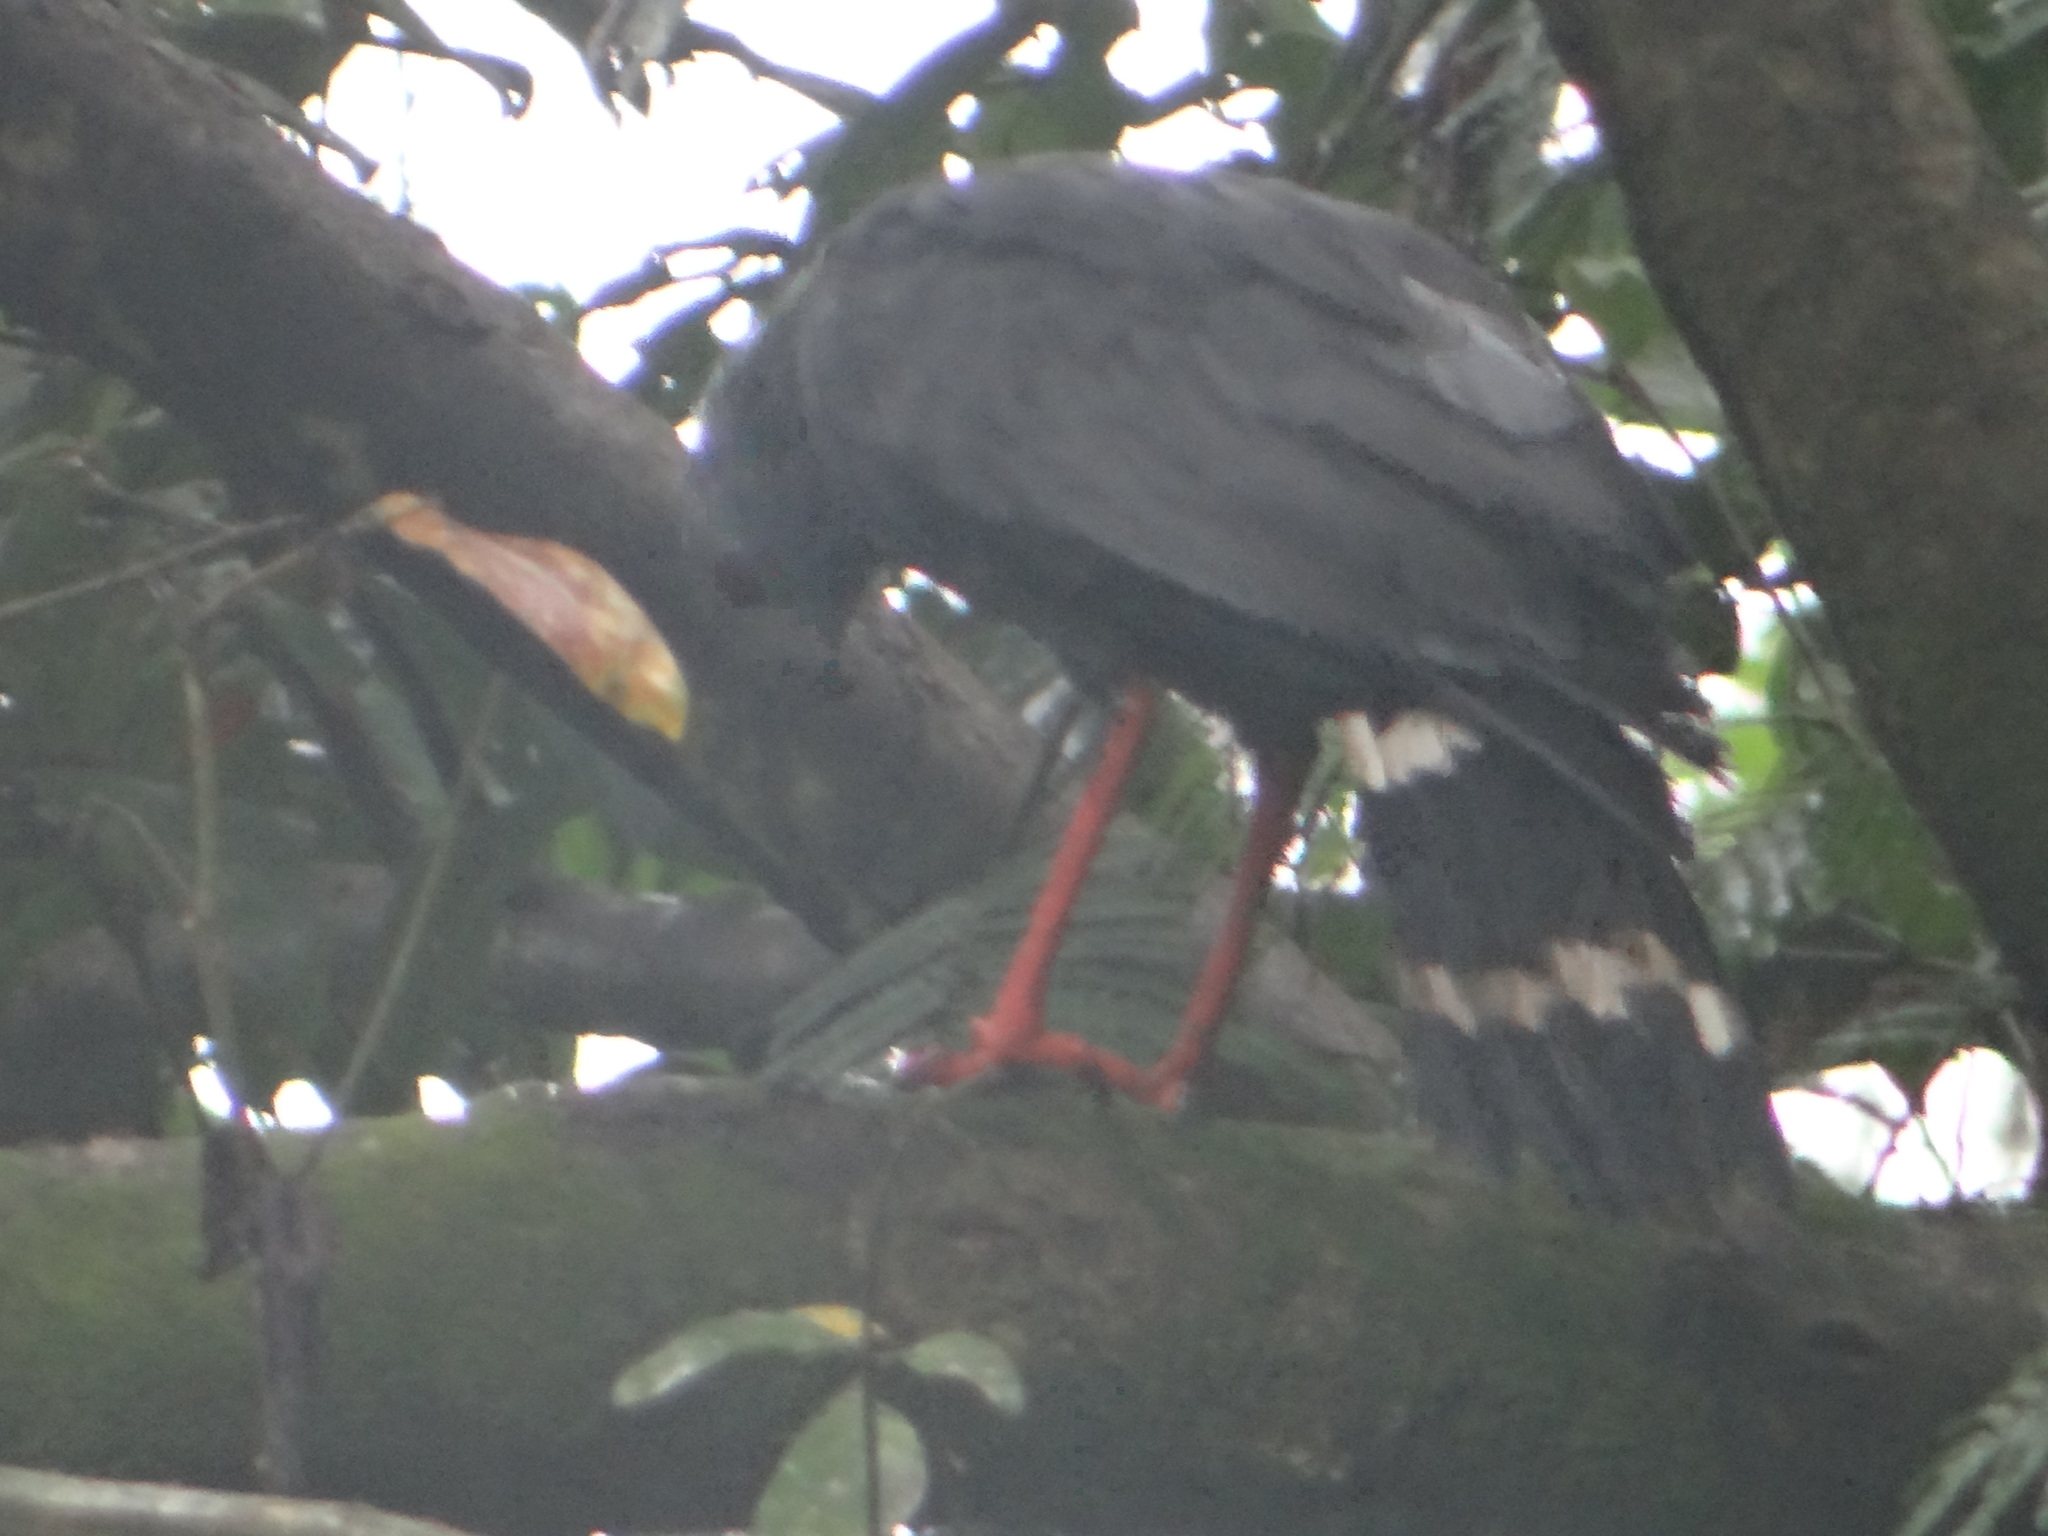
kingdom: Animalia
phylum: Chordata
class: Aves
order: Accipitriformes
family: Accipitridae
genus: Geranospiza
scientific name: Geranospiza caerulescens
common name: Crane hawk
